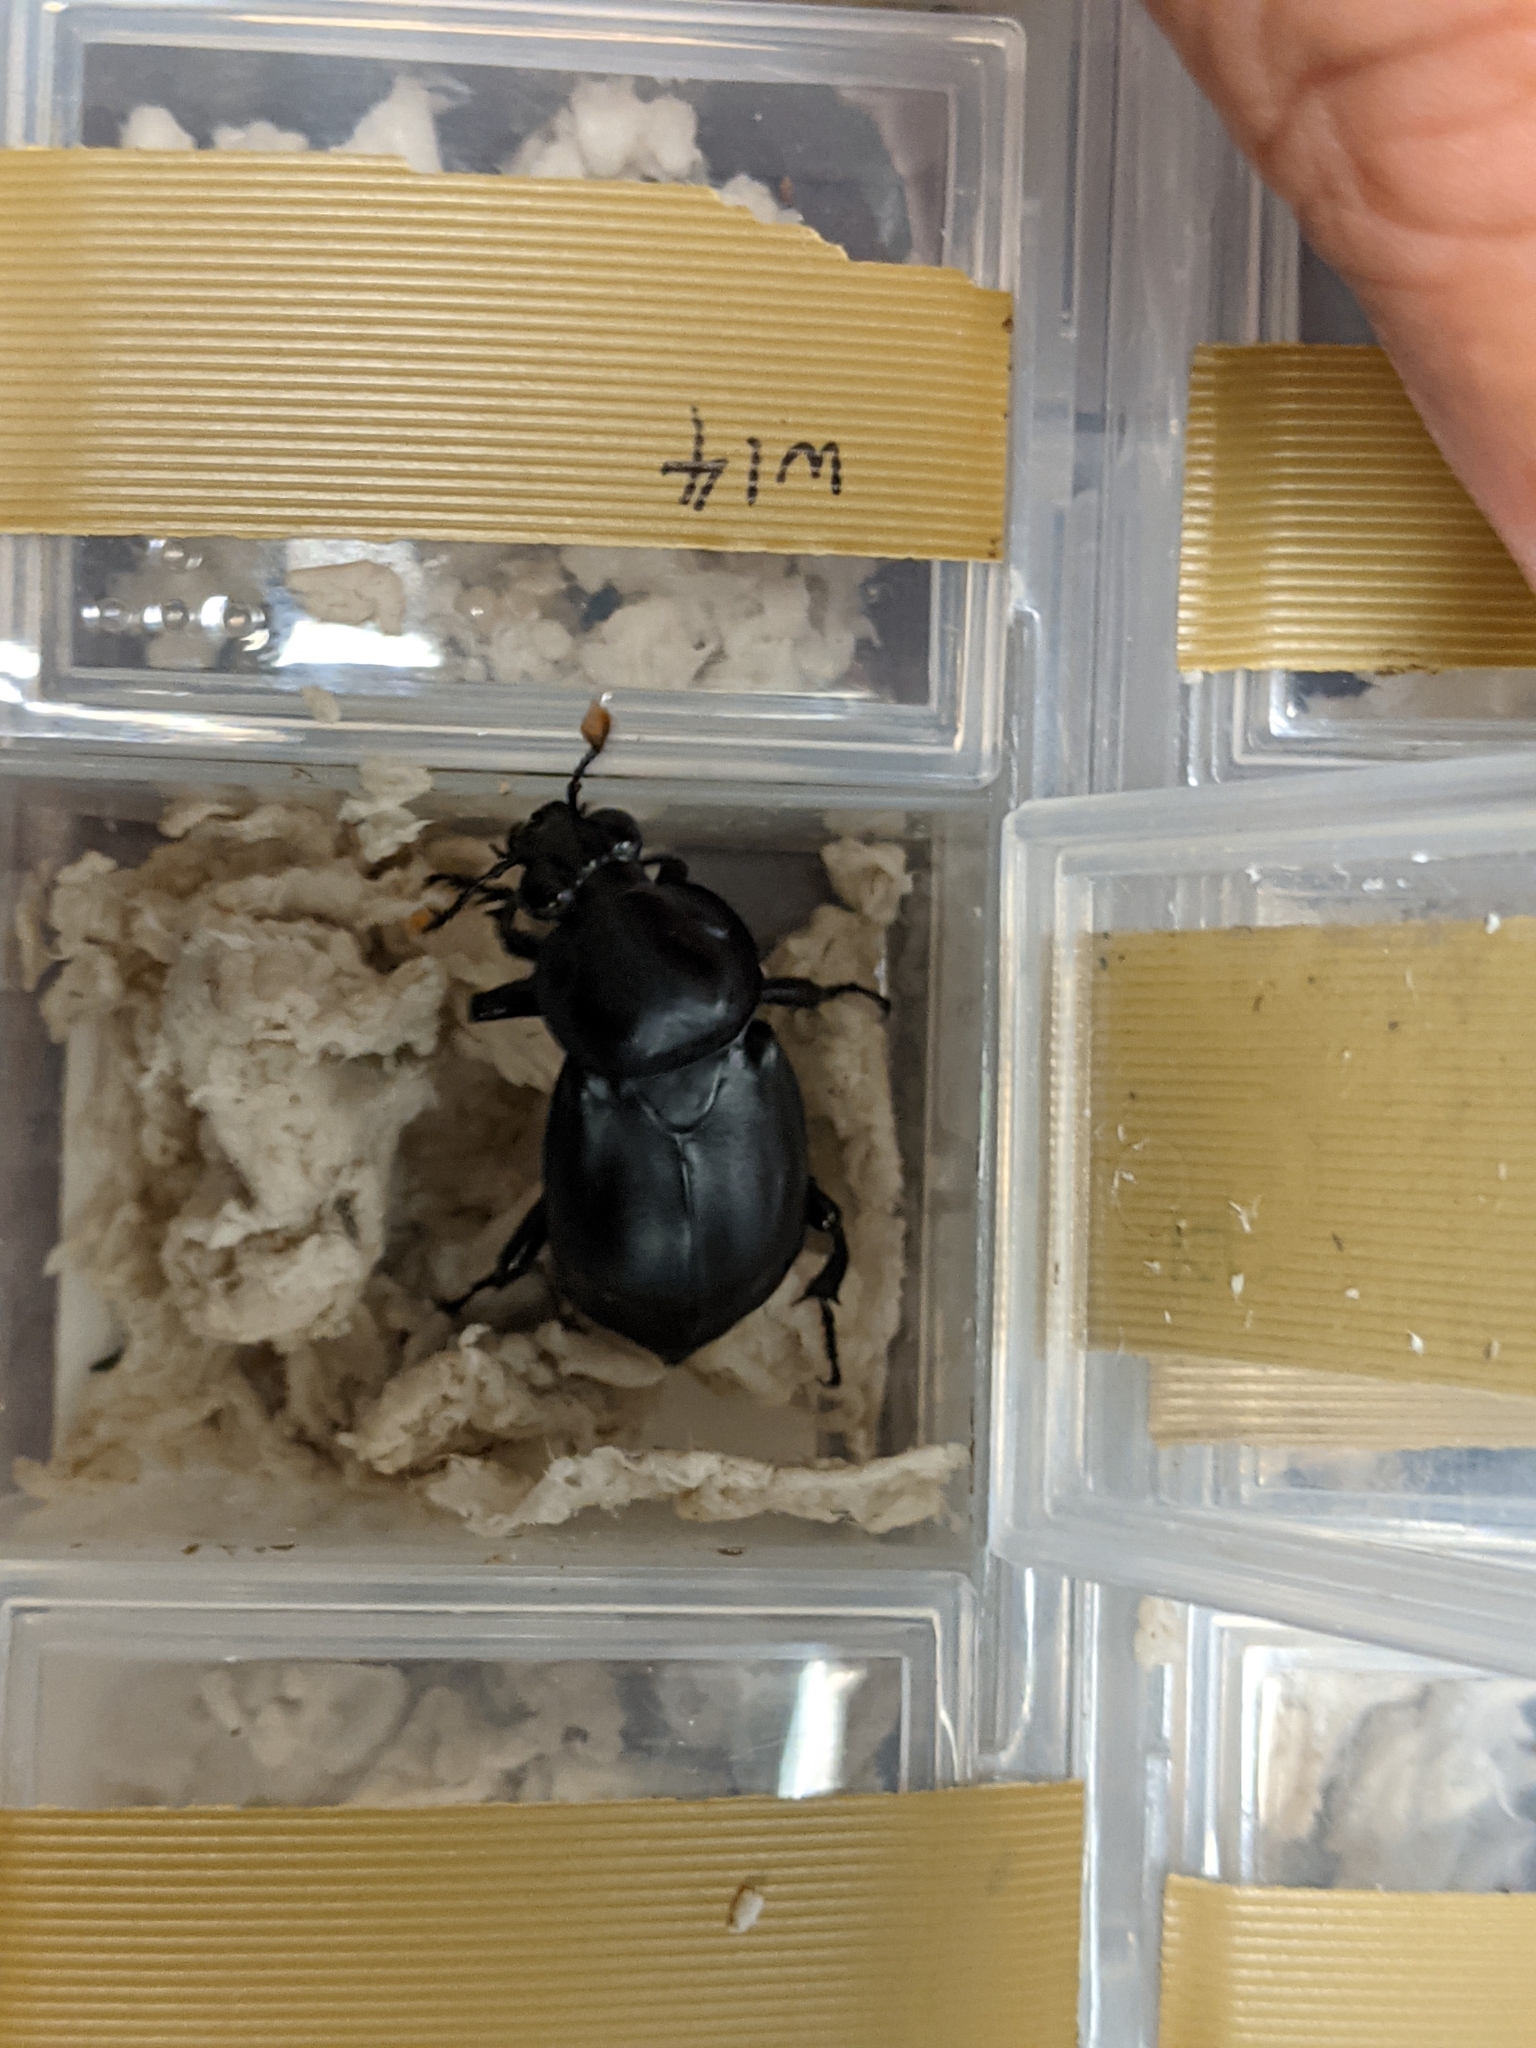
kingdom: Animalia
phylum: Arthropoda
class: Insecta
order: Coleoptera
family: Staphylinidae
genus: Nicrophorus
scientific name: Nicrophorus concolor
